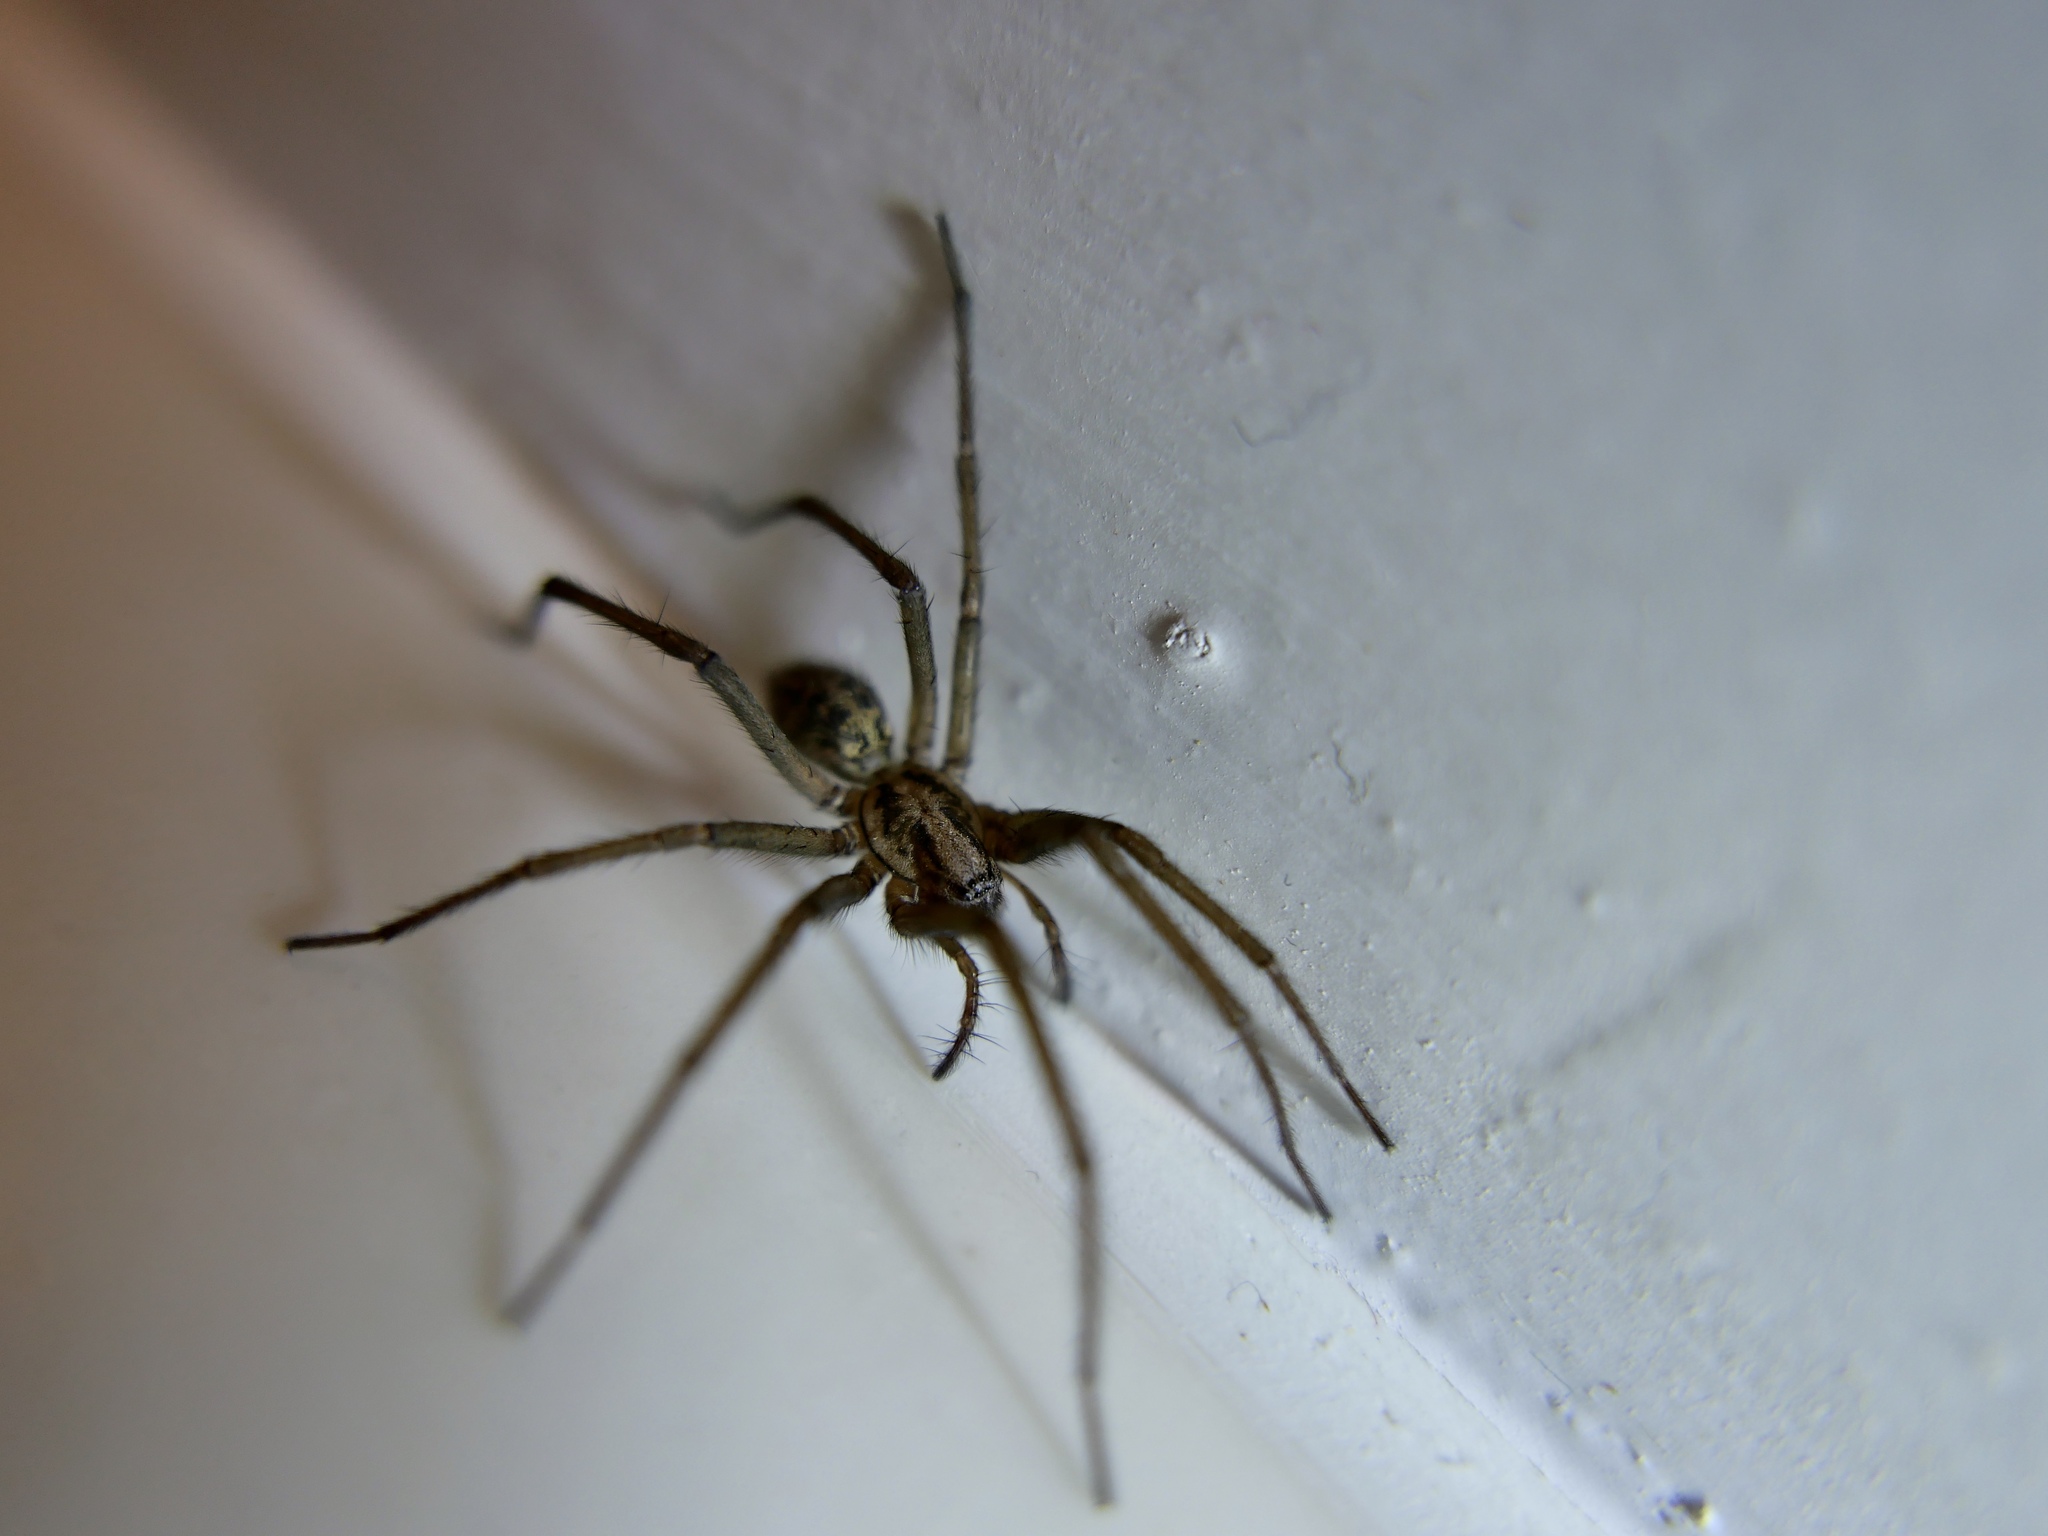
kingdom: Animalia
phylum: Arthropoda
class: Arachnida
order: Araneae
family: Agelenidae
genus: Eratigena
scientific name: Eratigena duellica
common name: Giant house spider
